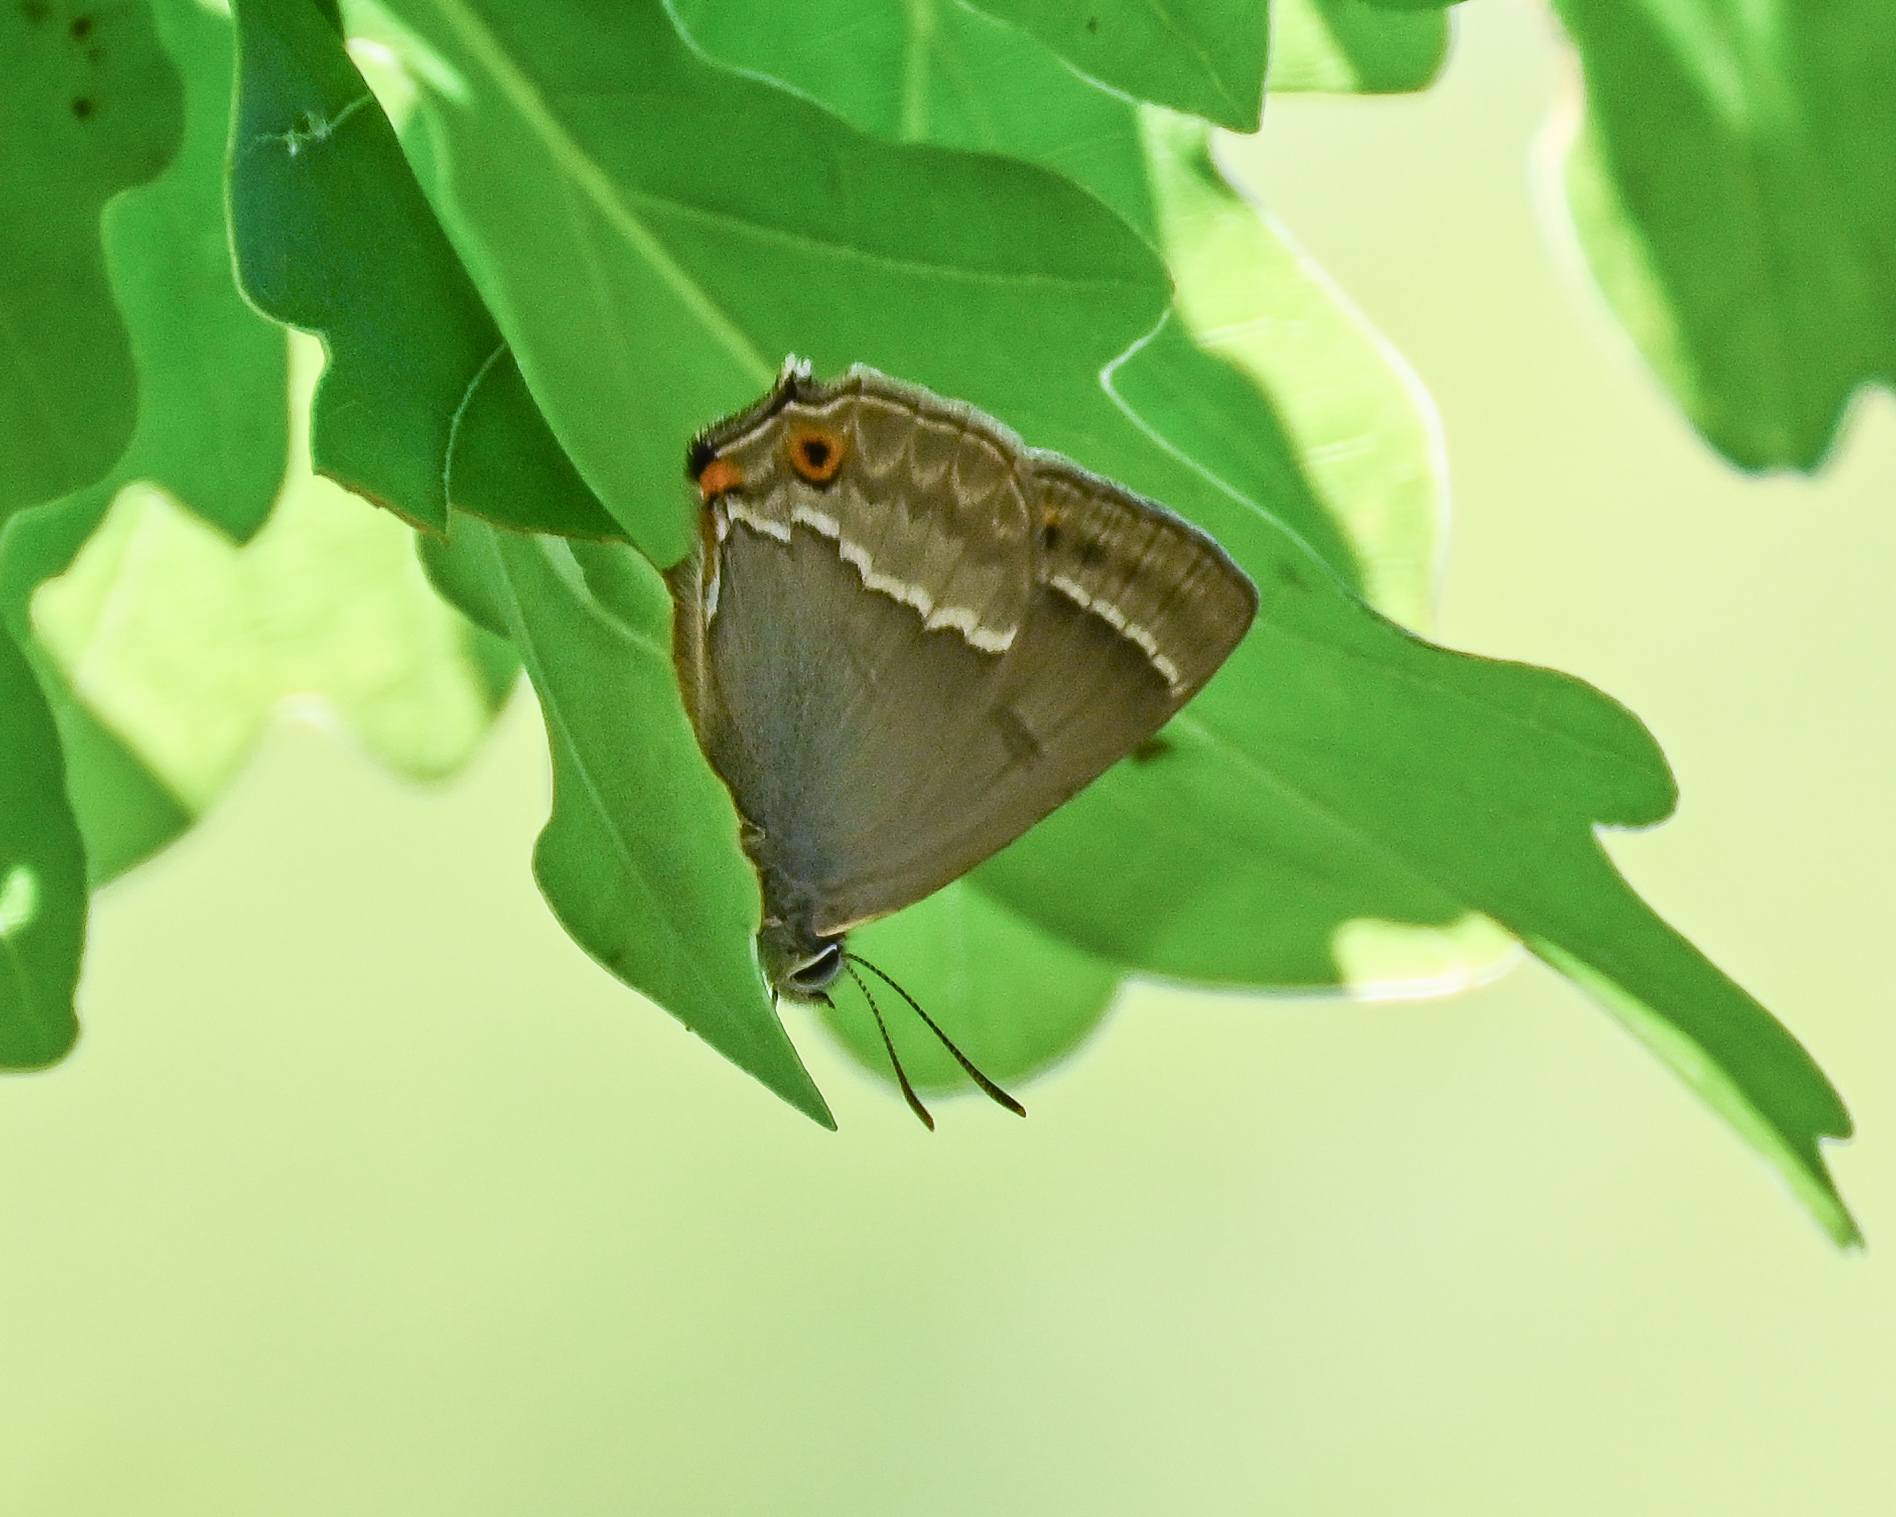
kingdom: Animalia
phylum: Arthropoda
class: Insecta
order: Lepidoptera
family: Lycaenidae
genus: Quercusia
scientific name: Quercusia quercus
